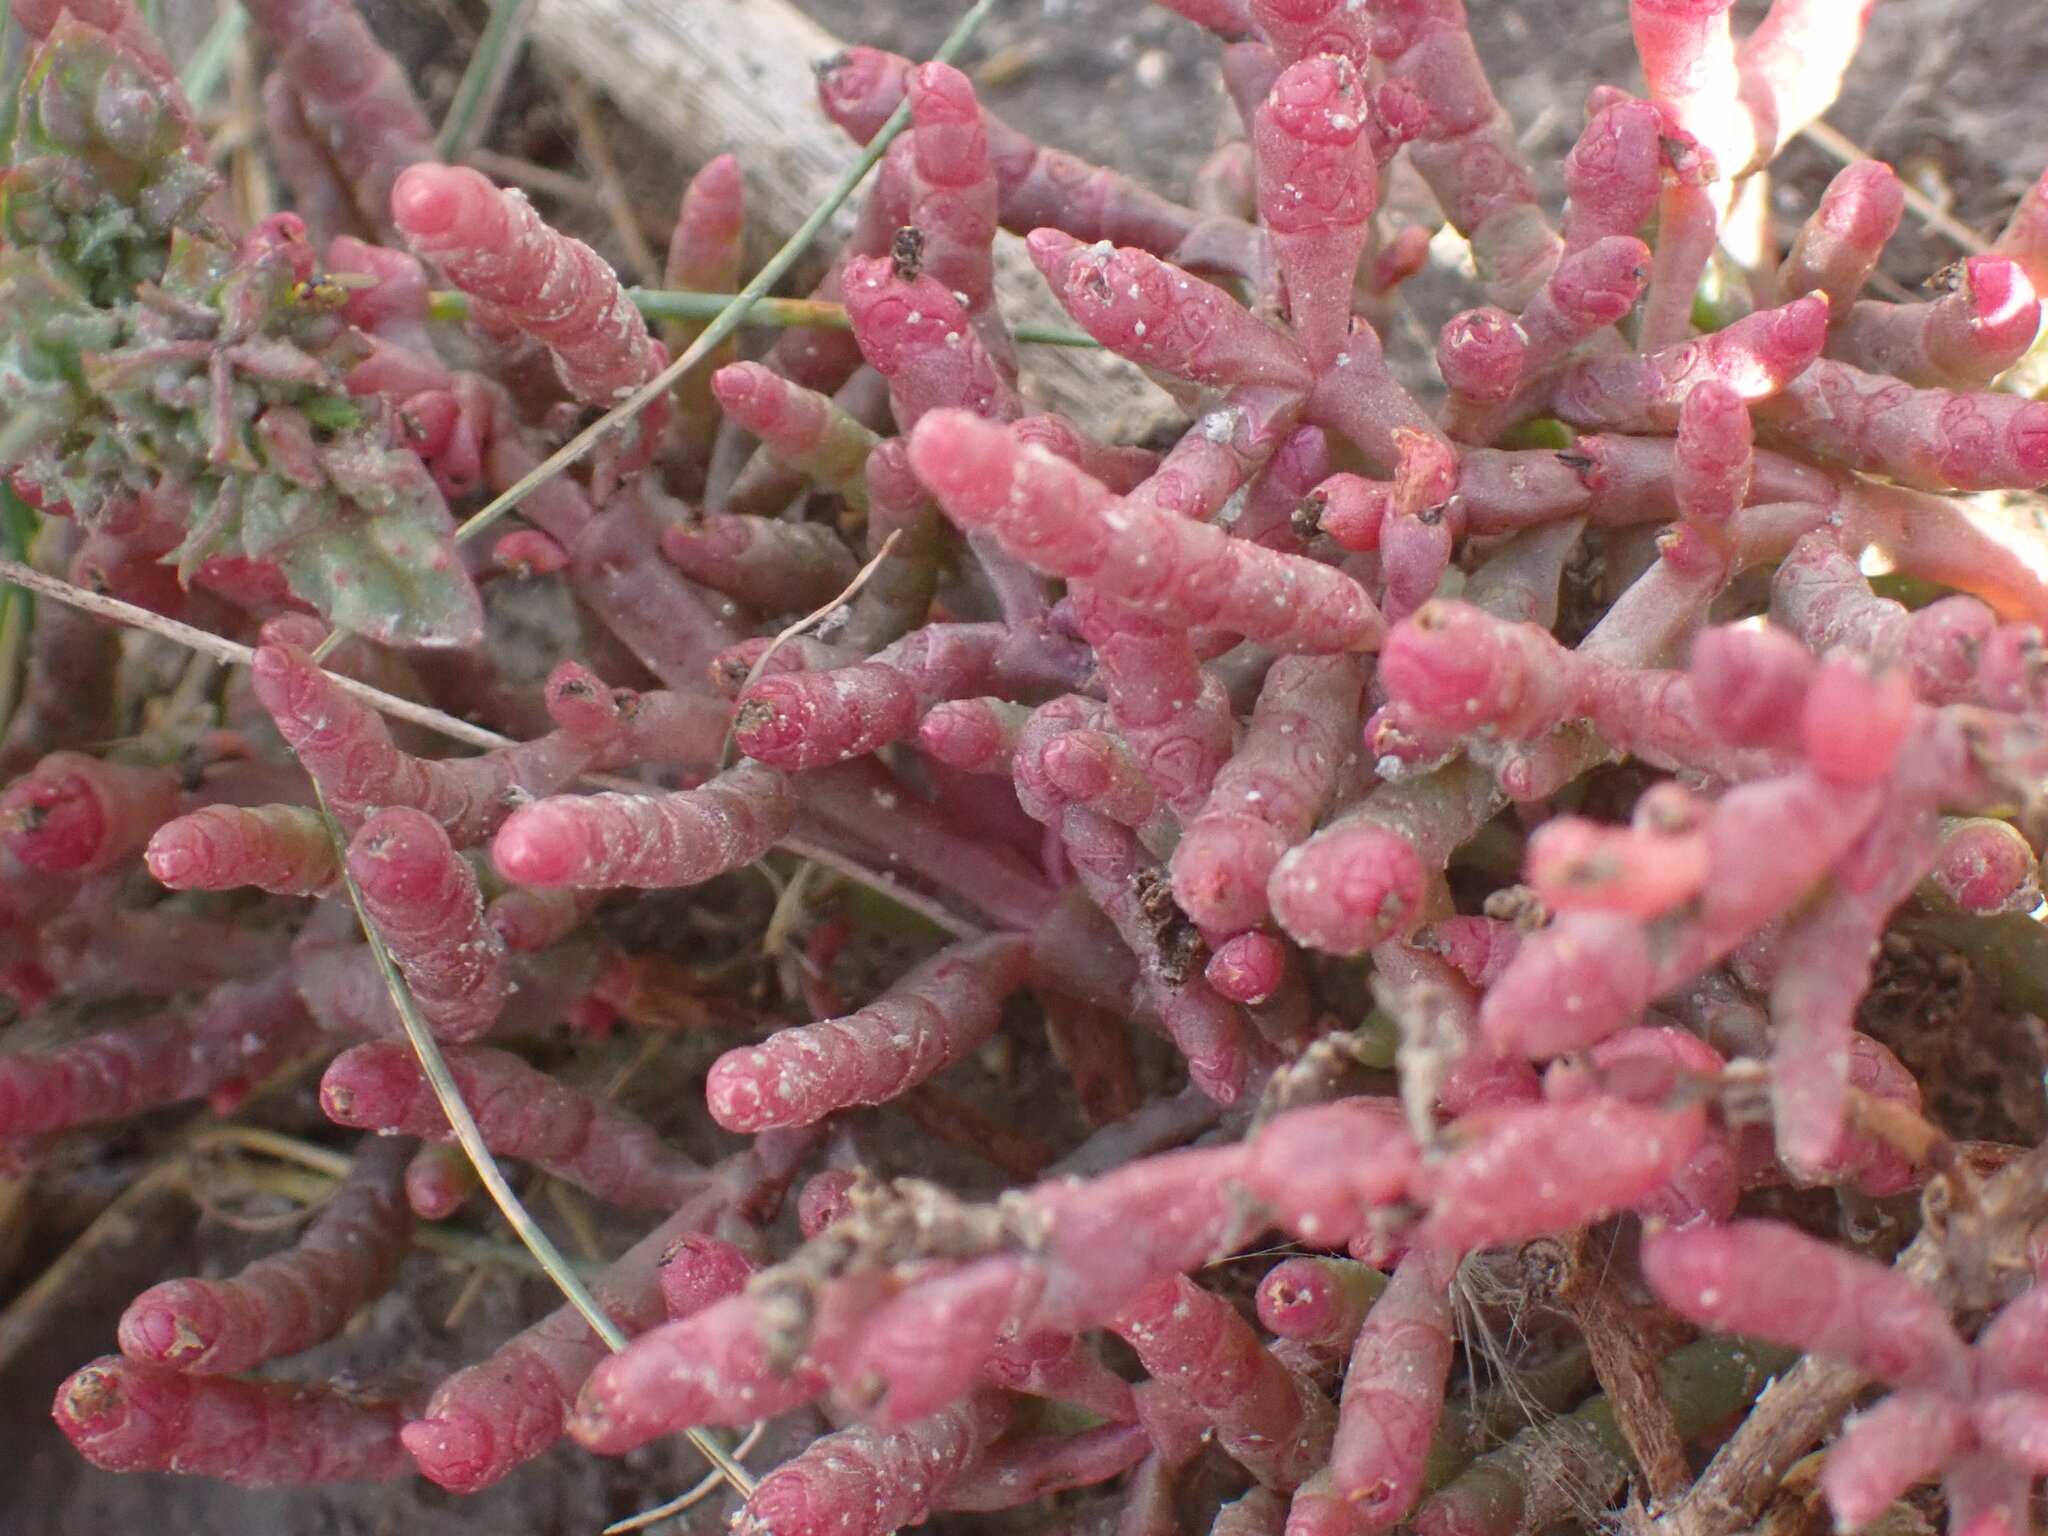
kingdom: Plantae
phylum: Tracheophyta
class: Magnoliopsida
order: Caryophyllales
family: Amaranthaceae
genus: Salicornia
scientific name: Salicornia rubra
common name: Red glasswort
